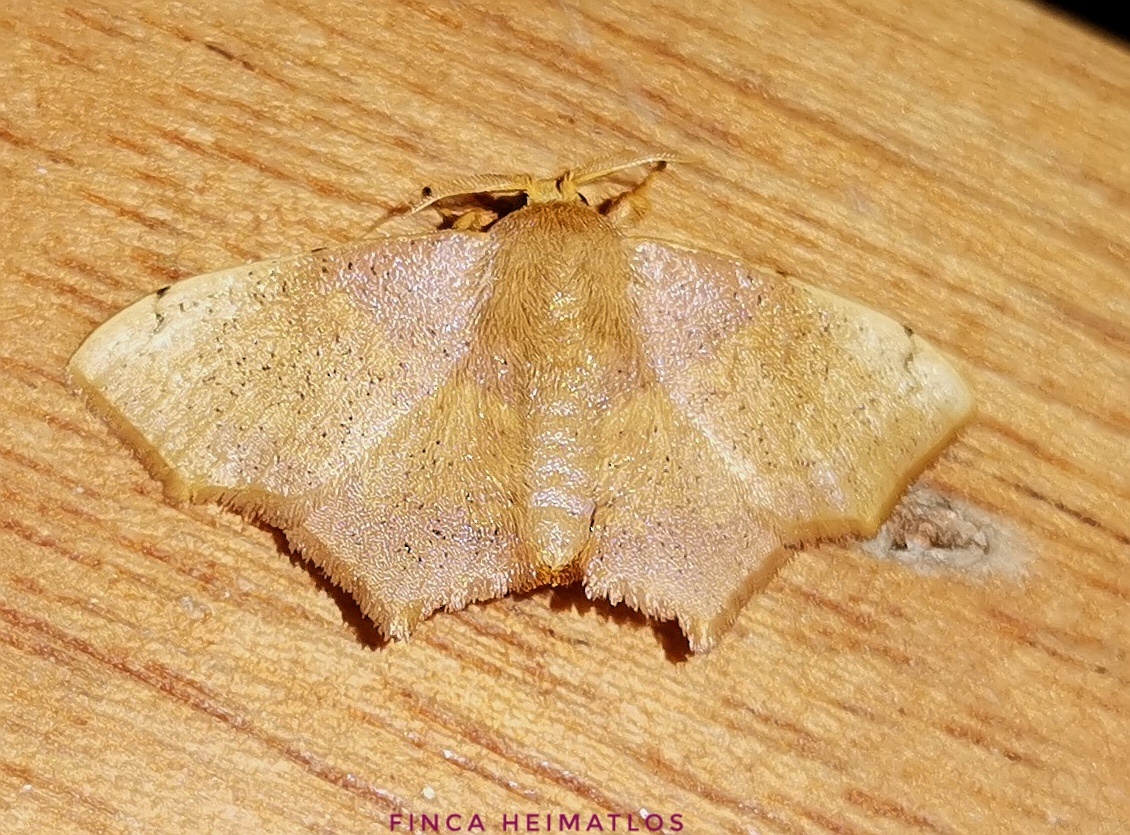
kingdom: Animalia
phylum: Arthropoda
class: Insecta
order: Lepidoptera
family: Mimallonidae
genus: Zaphanta
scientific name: Zaphanta rawlinsi
